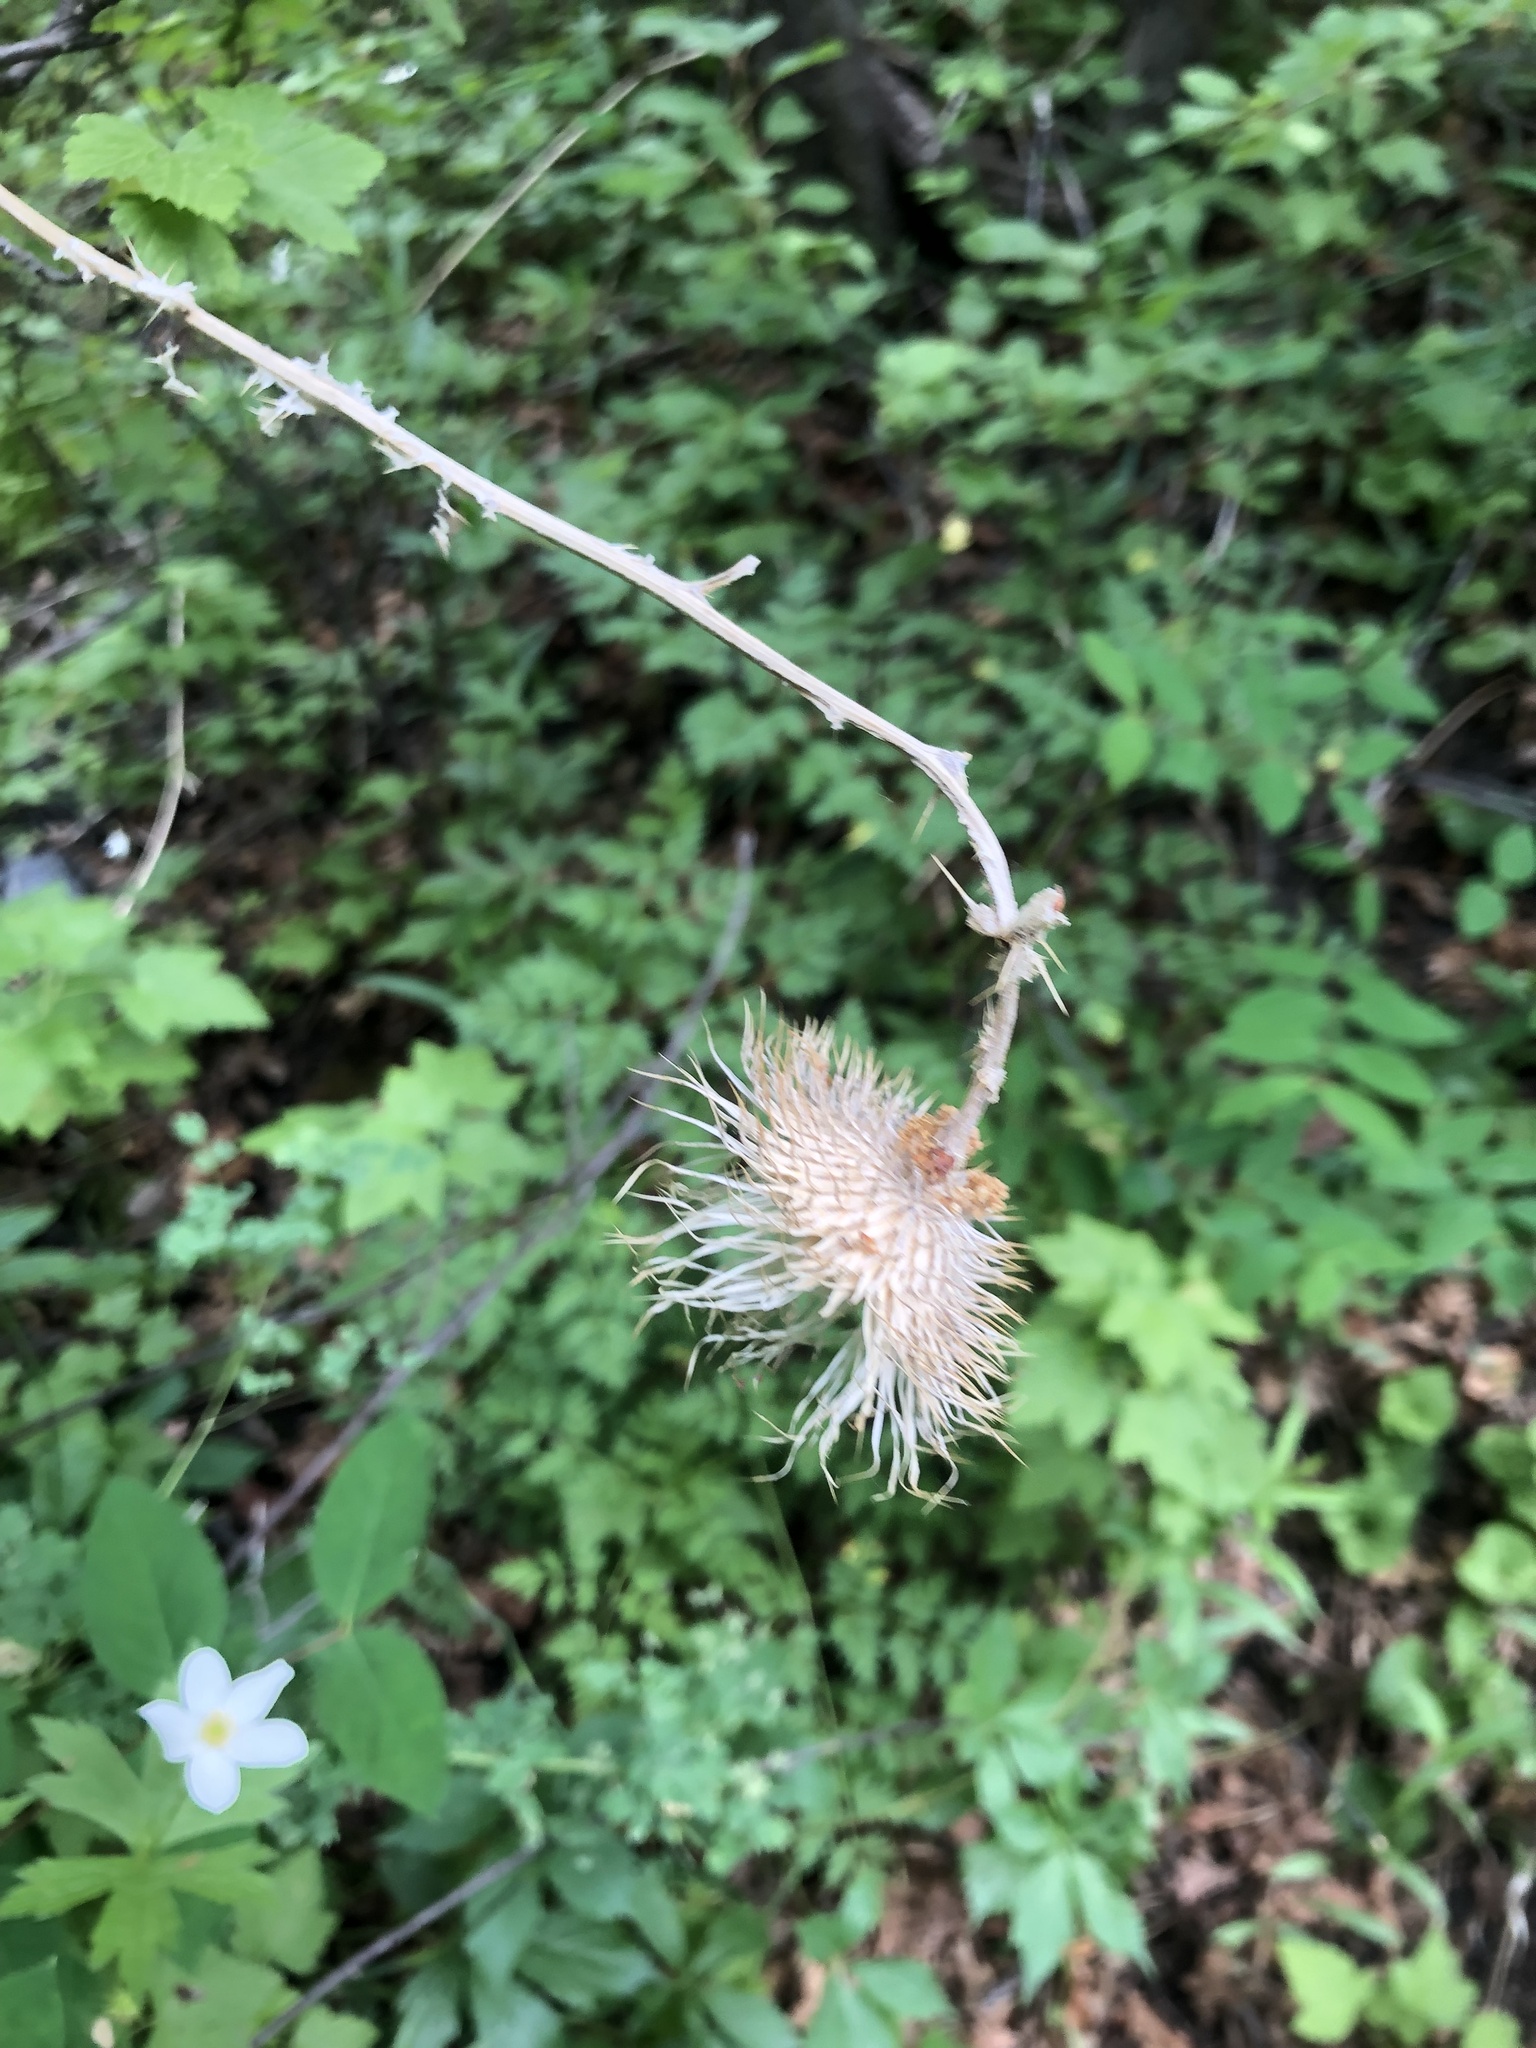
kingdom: Plantae
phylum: Tracheophyta
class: Magnoliopsida
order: Asterales
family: Asteraceae
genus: Cirsium
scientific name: Cirsium vulgare
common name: Bull thistle
